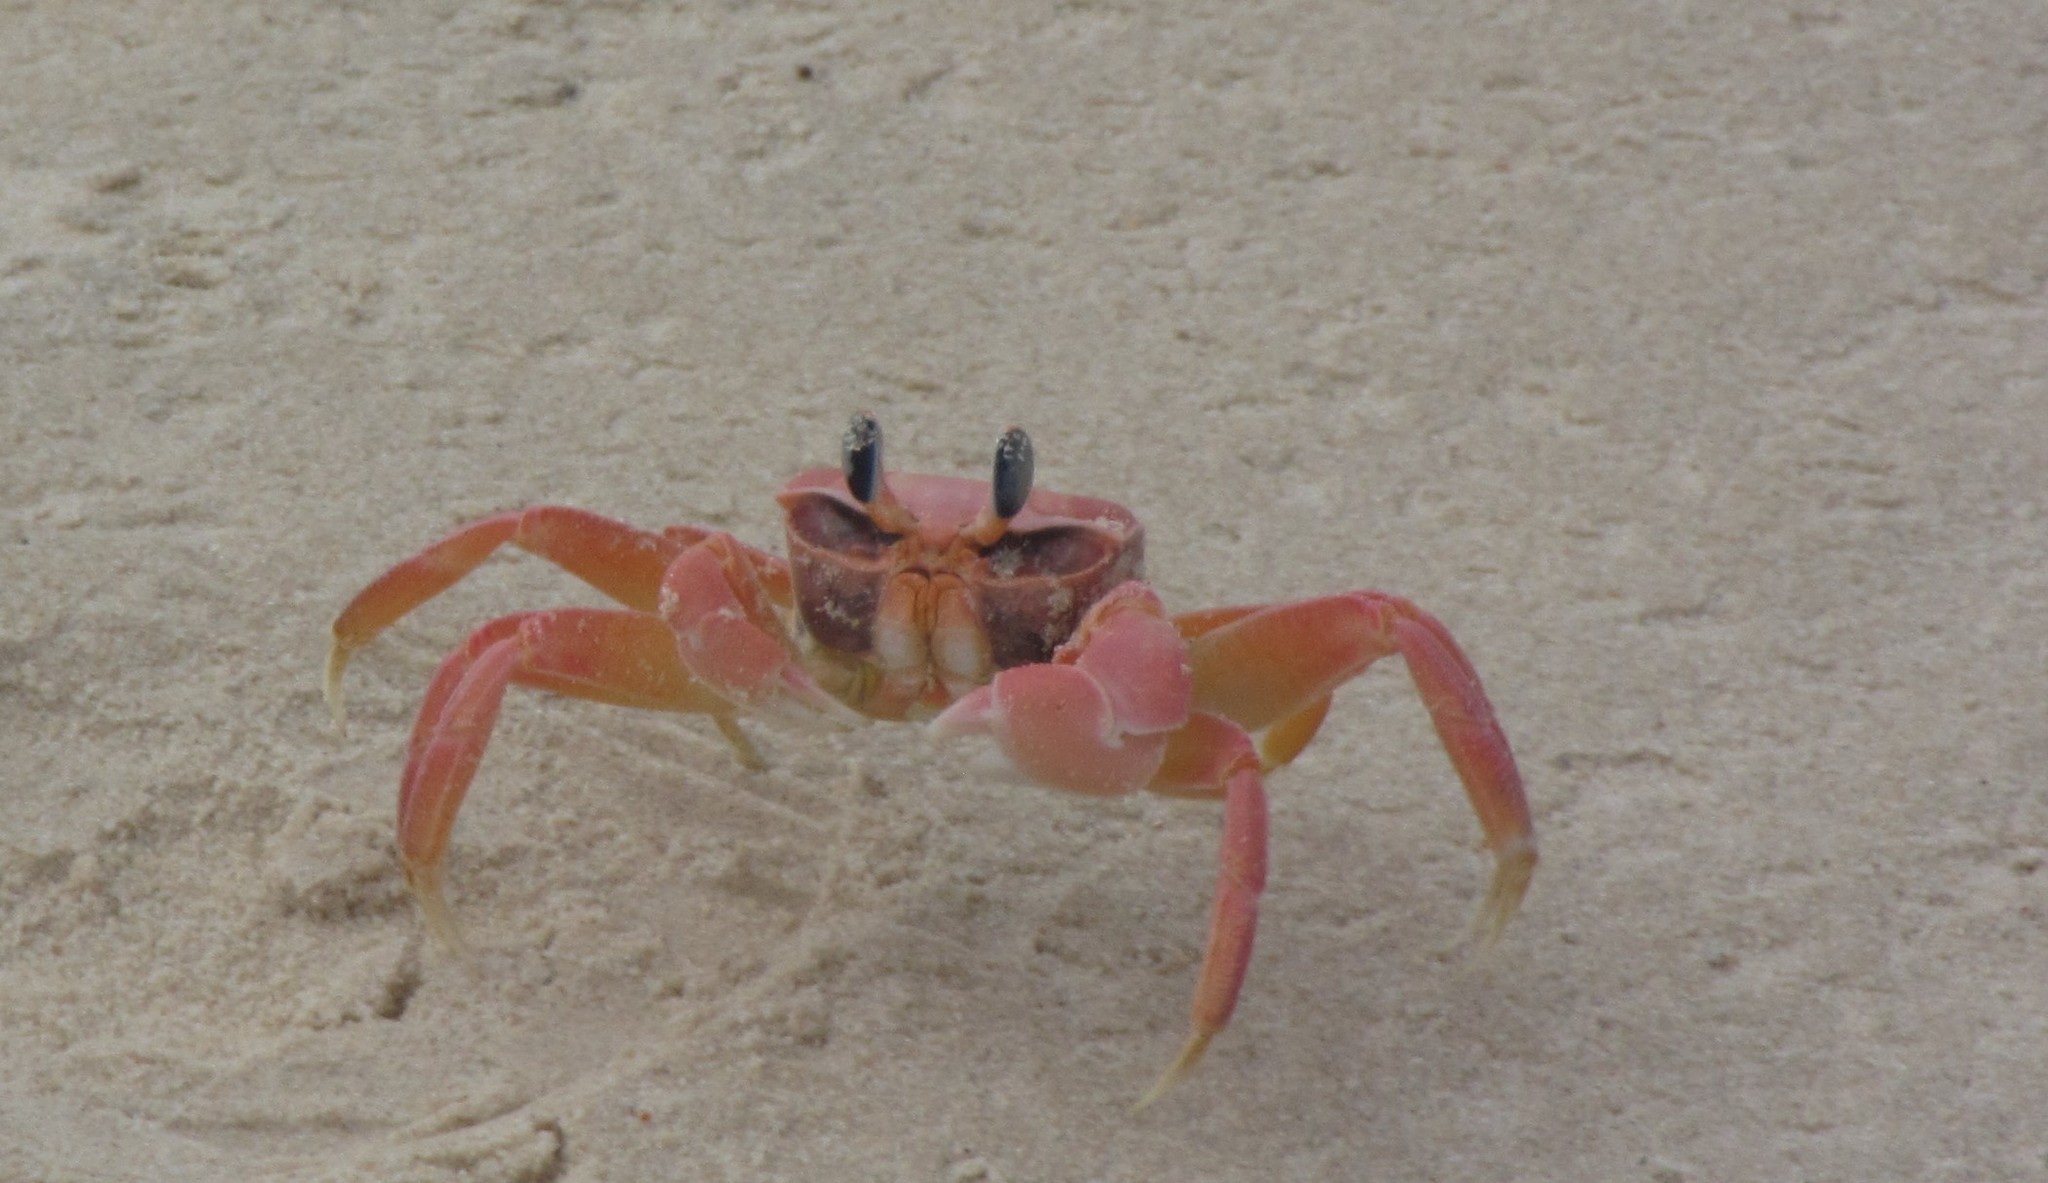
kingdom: Animalia
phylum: Arthropoda
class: Malacostraca
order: Decapoda
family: Ocypodidae
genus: Ocypode
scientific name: Ocypode africana
